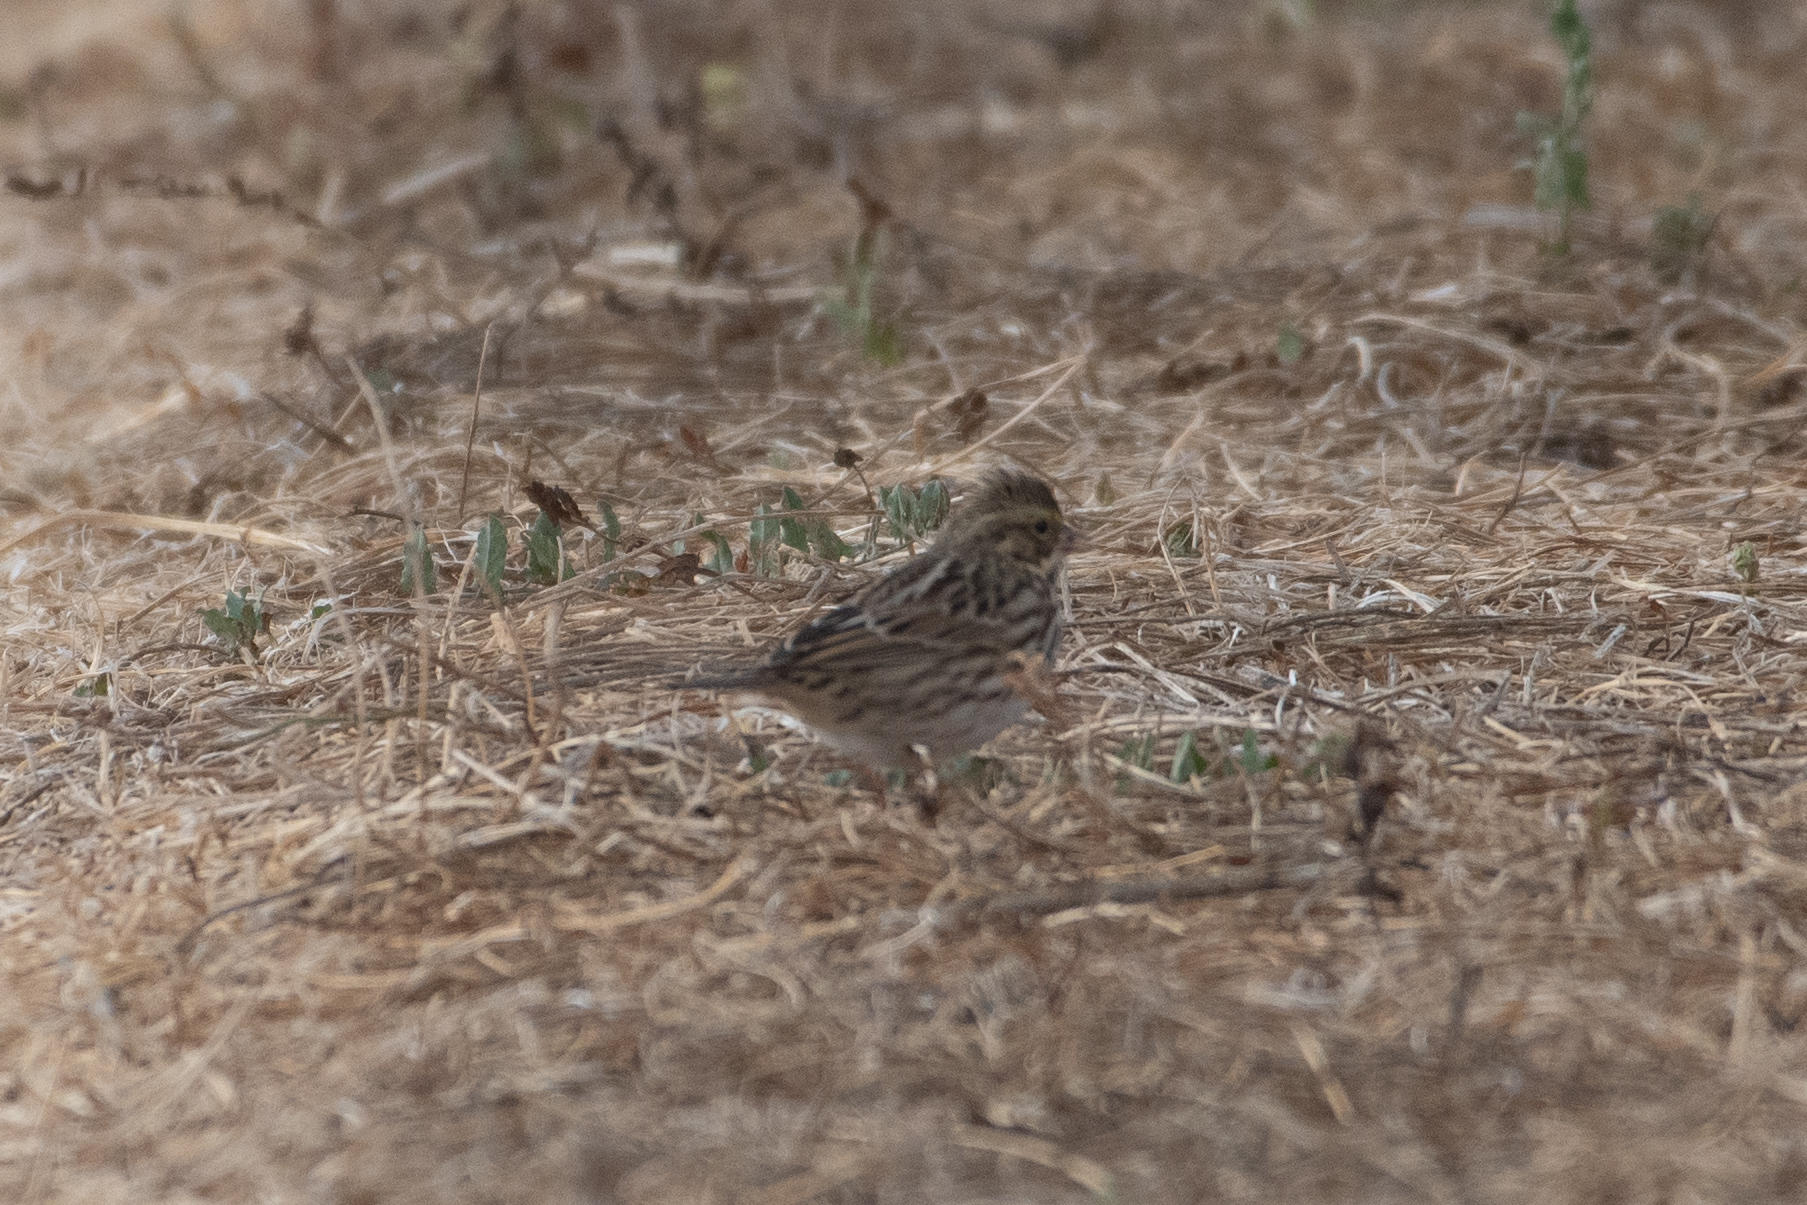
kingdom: Animalia
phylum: Chordata
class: Aves
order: Passeriformes
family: Passerellidae
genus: Passerculus
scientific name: Passerculus sandwichensis
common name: Savannah sparrow
